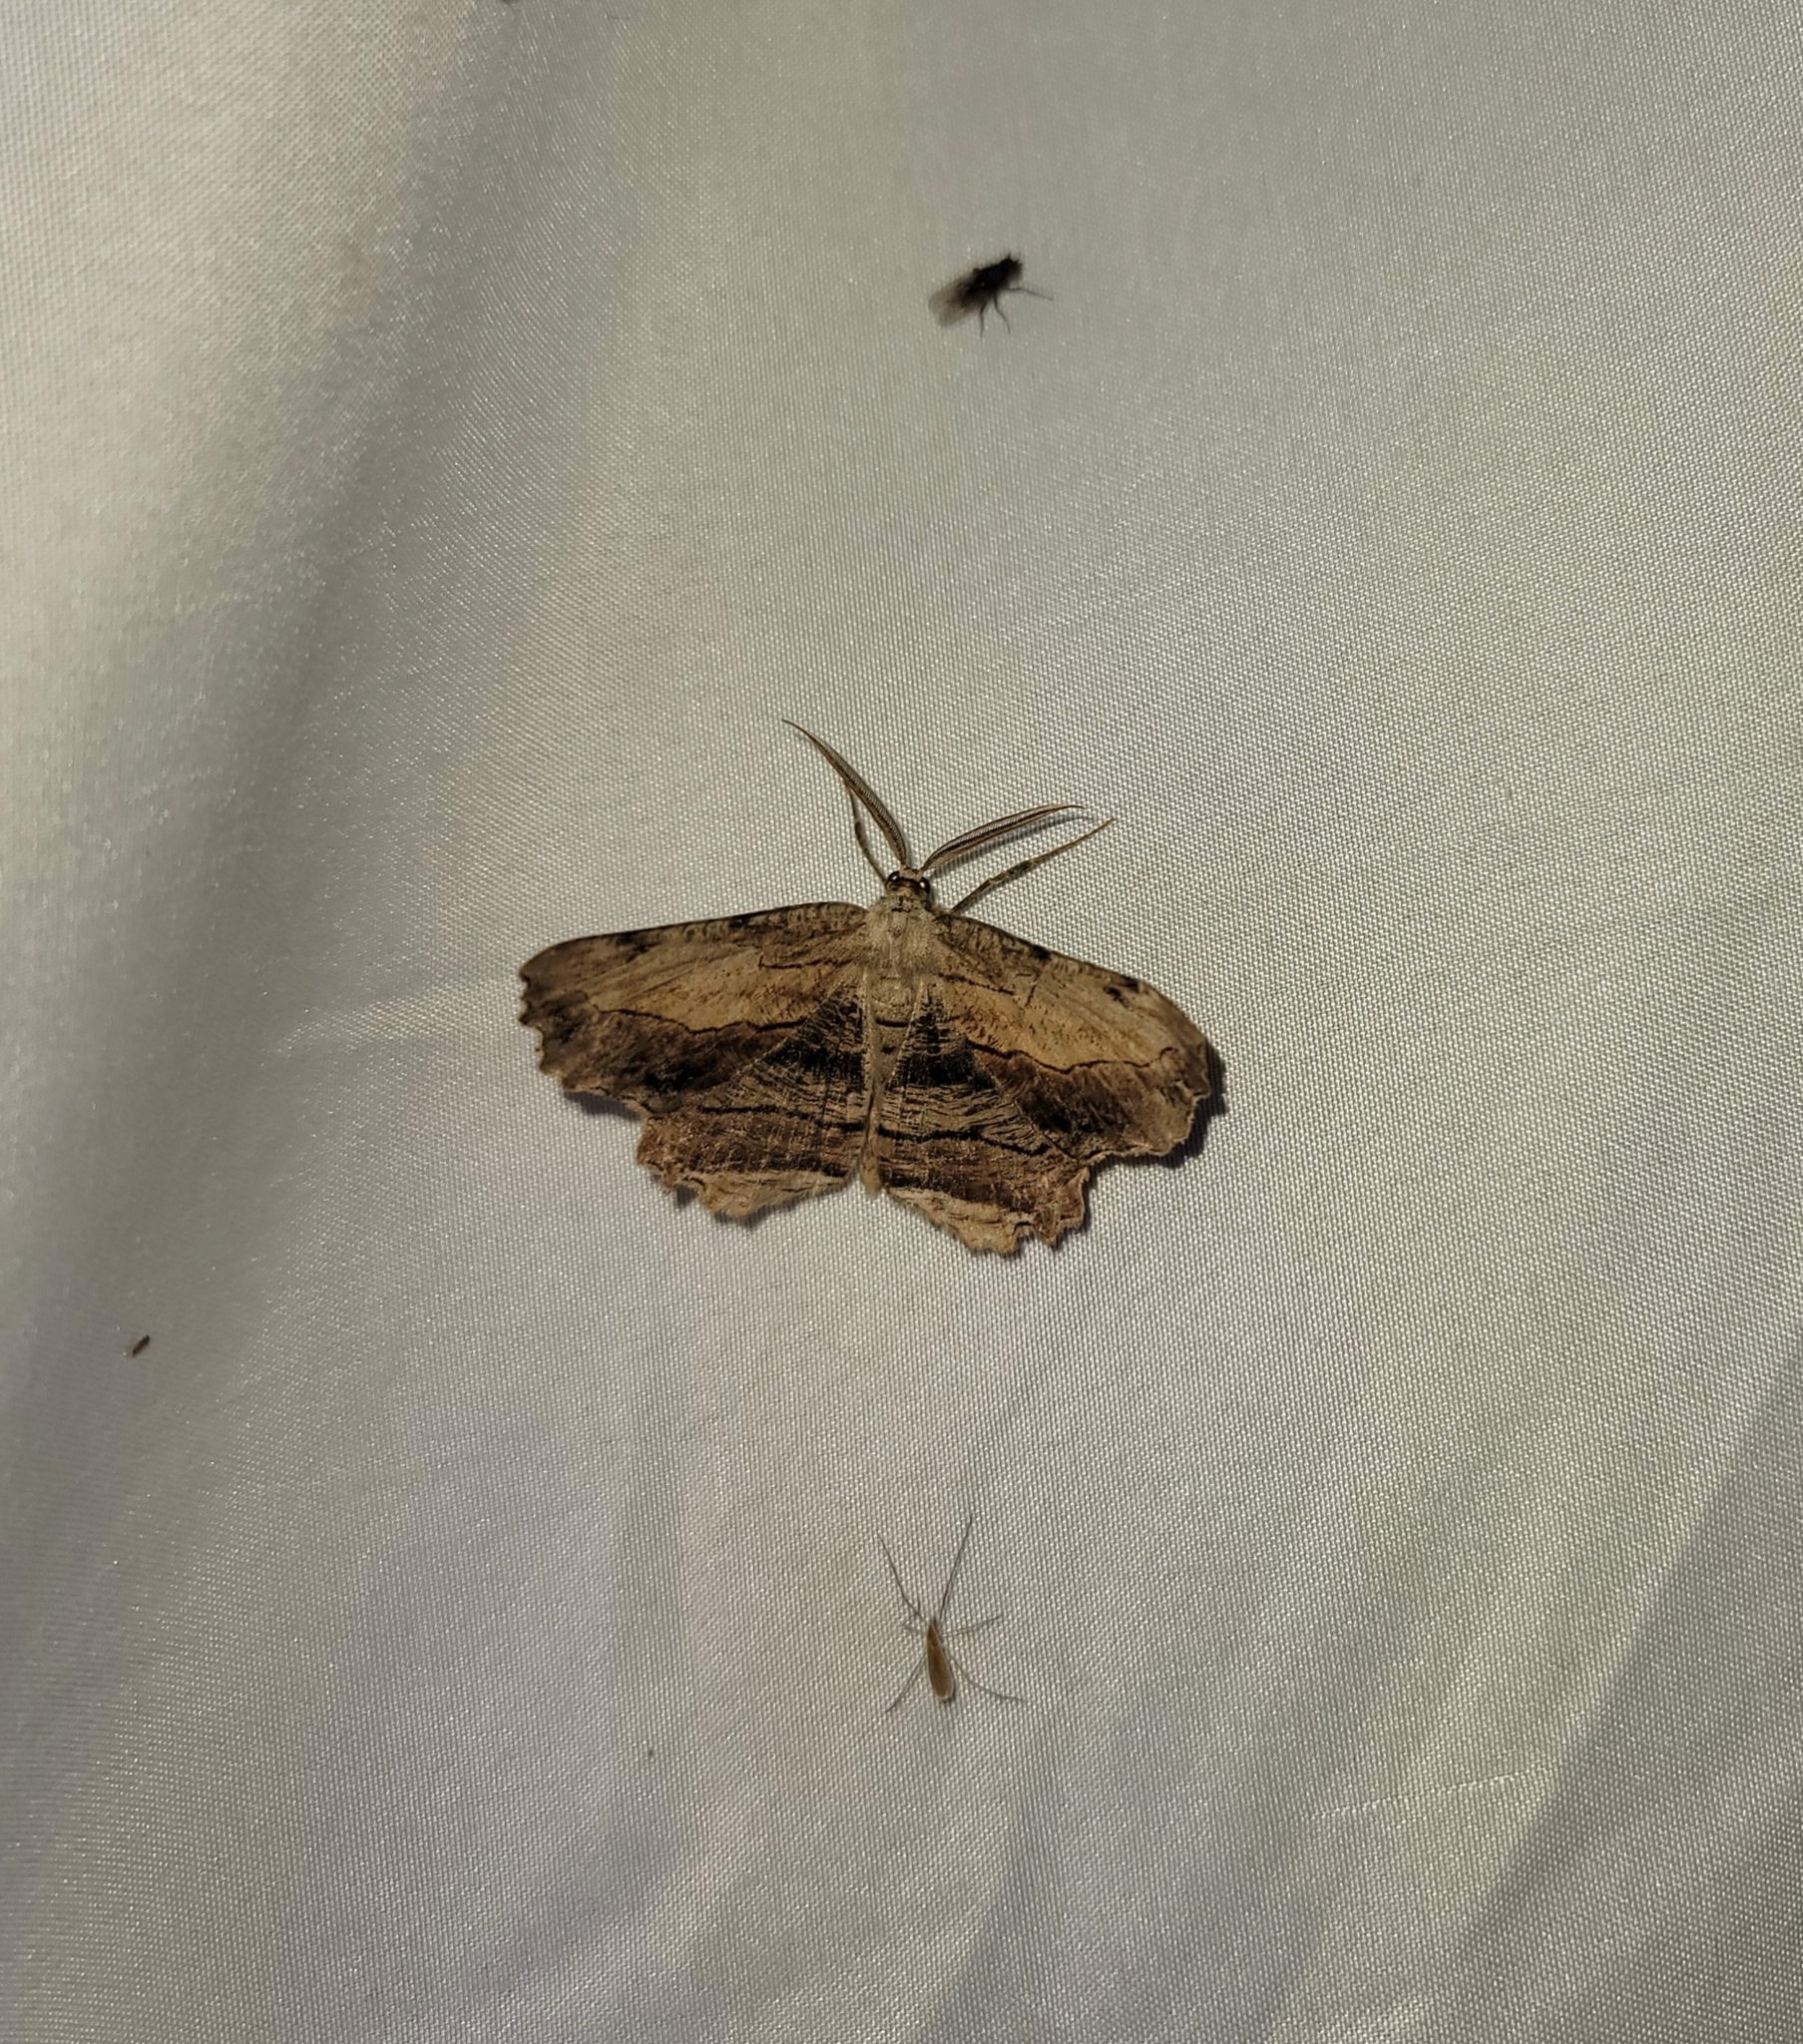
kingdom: Animalia
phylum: Arthropoda
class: Insecta
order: Lepidoptera
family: Geometridae
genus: Lytrosis
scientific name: Lytrosis unitaria
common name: Common lytrosis
